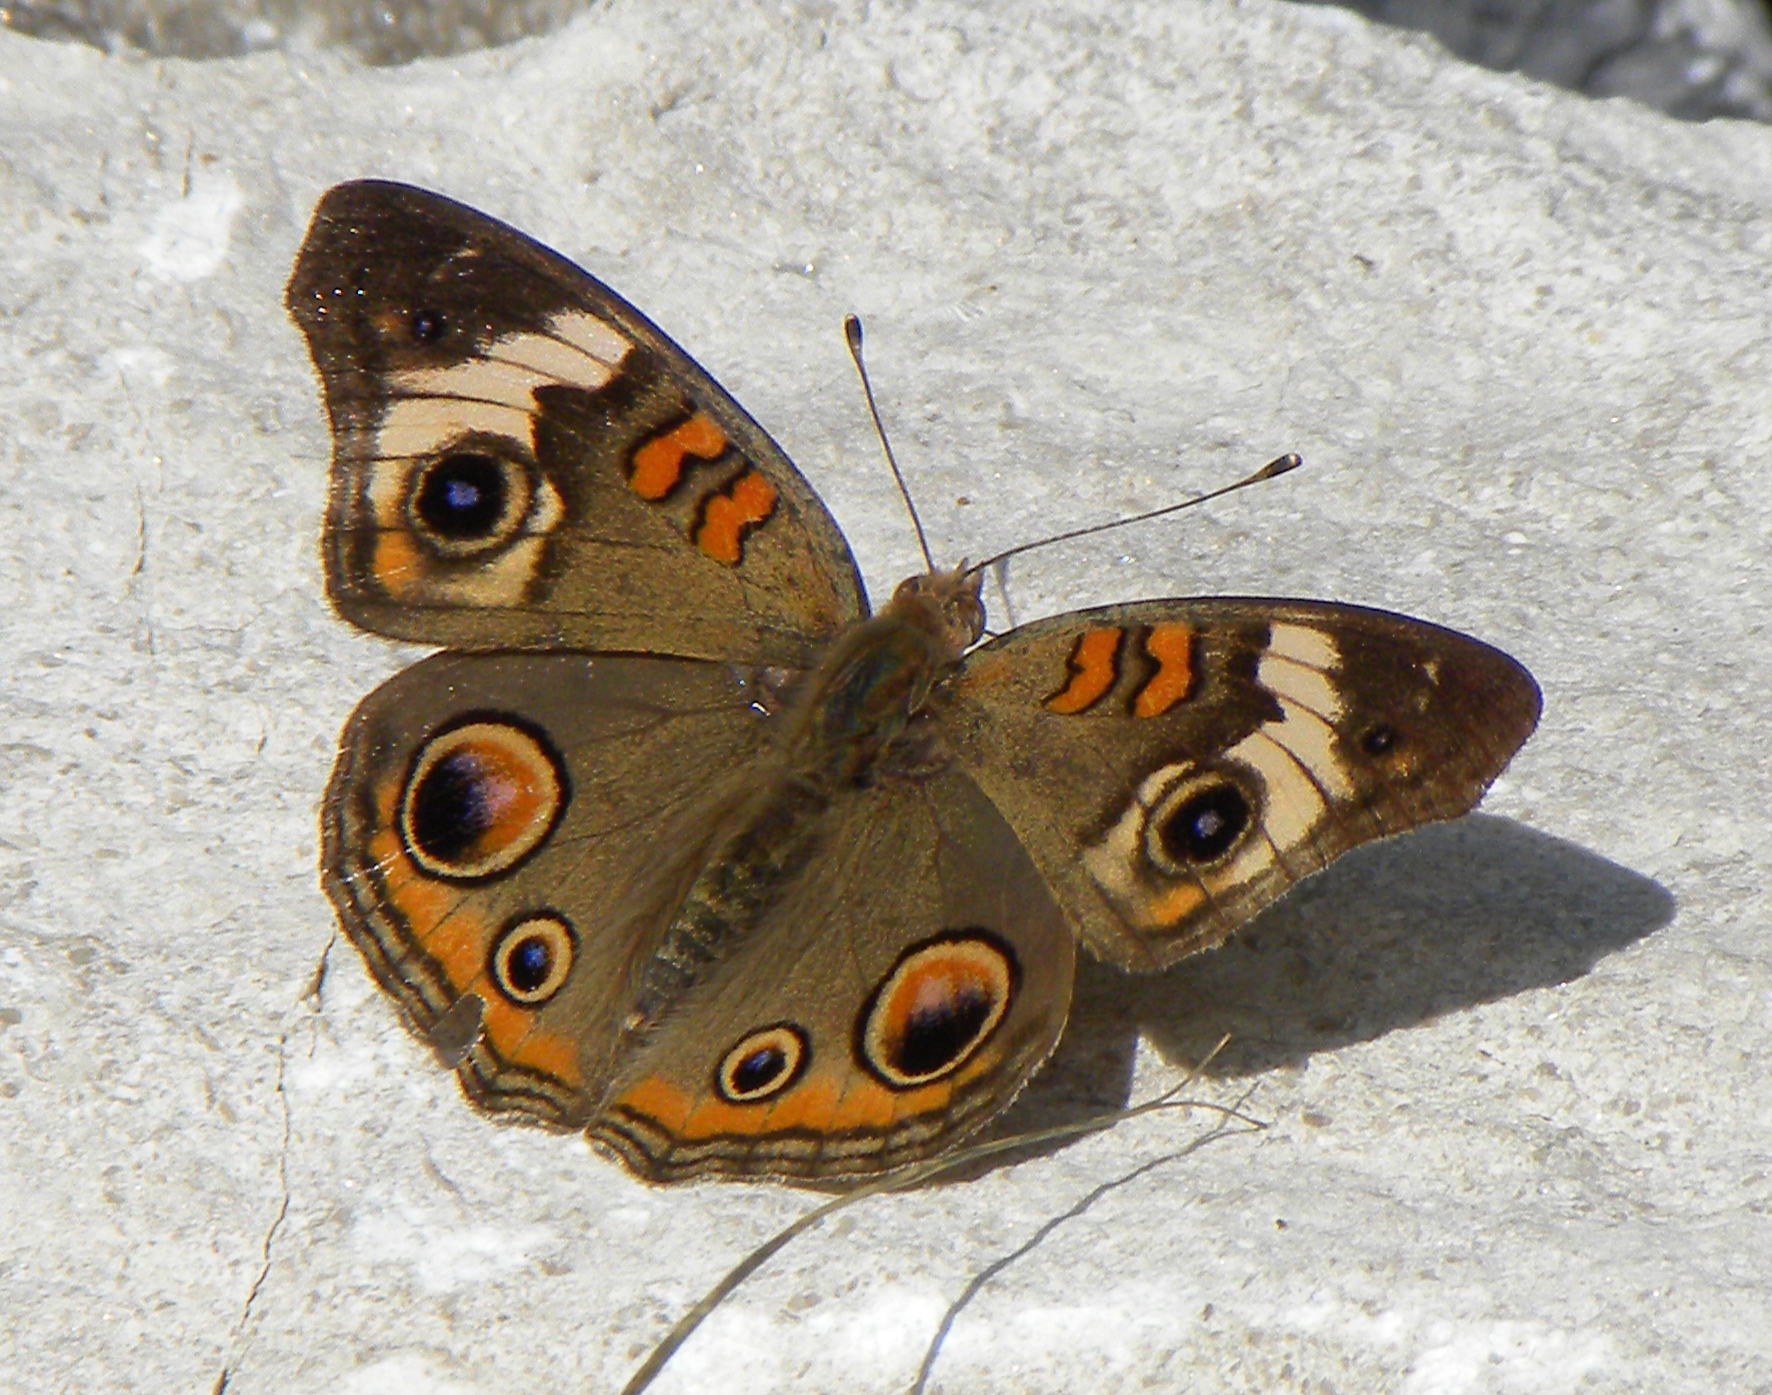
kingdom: Animalia
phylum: Arthropoda
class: Insecta
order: Lepidoptera
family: Nymphalidae
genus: Junonia
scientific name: Junonia coenia
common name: Common buckeye
